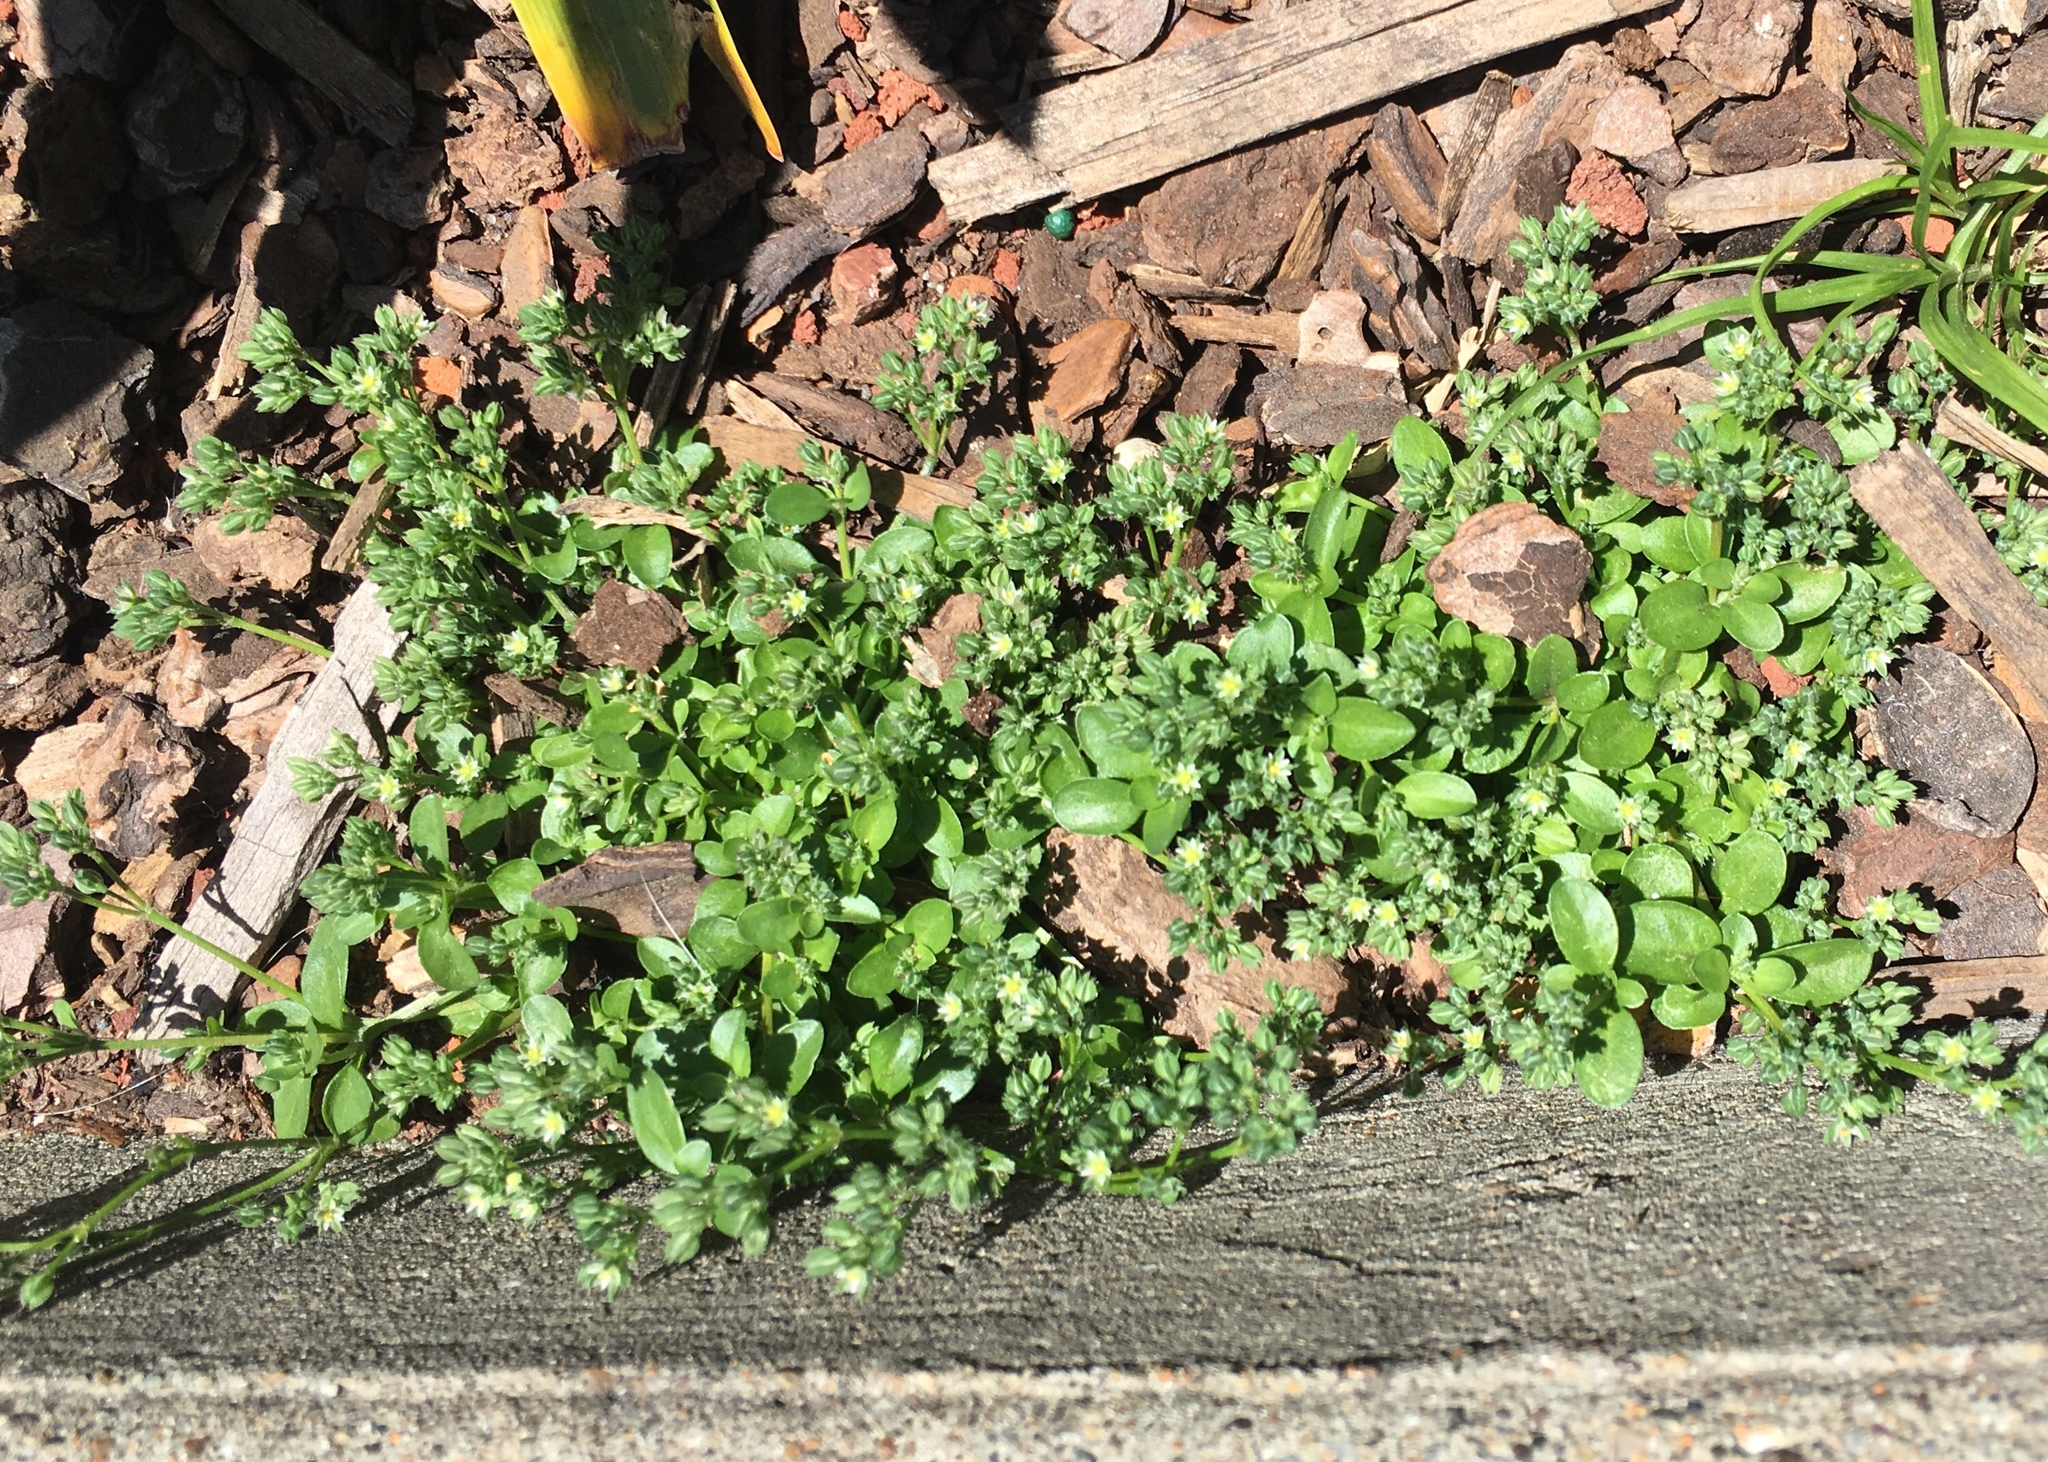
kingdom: Plantae
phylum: Tracheophyta
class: Magnoliopsida
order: Caryophyllales
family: Caryophyllaceae
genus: Polycarpon
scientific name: Polycarpon tetraphyllum
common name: Four-leaved all-seed
